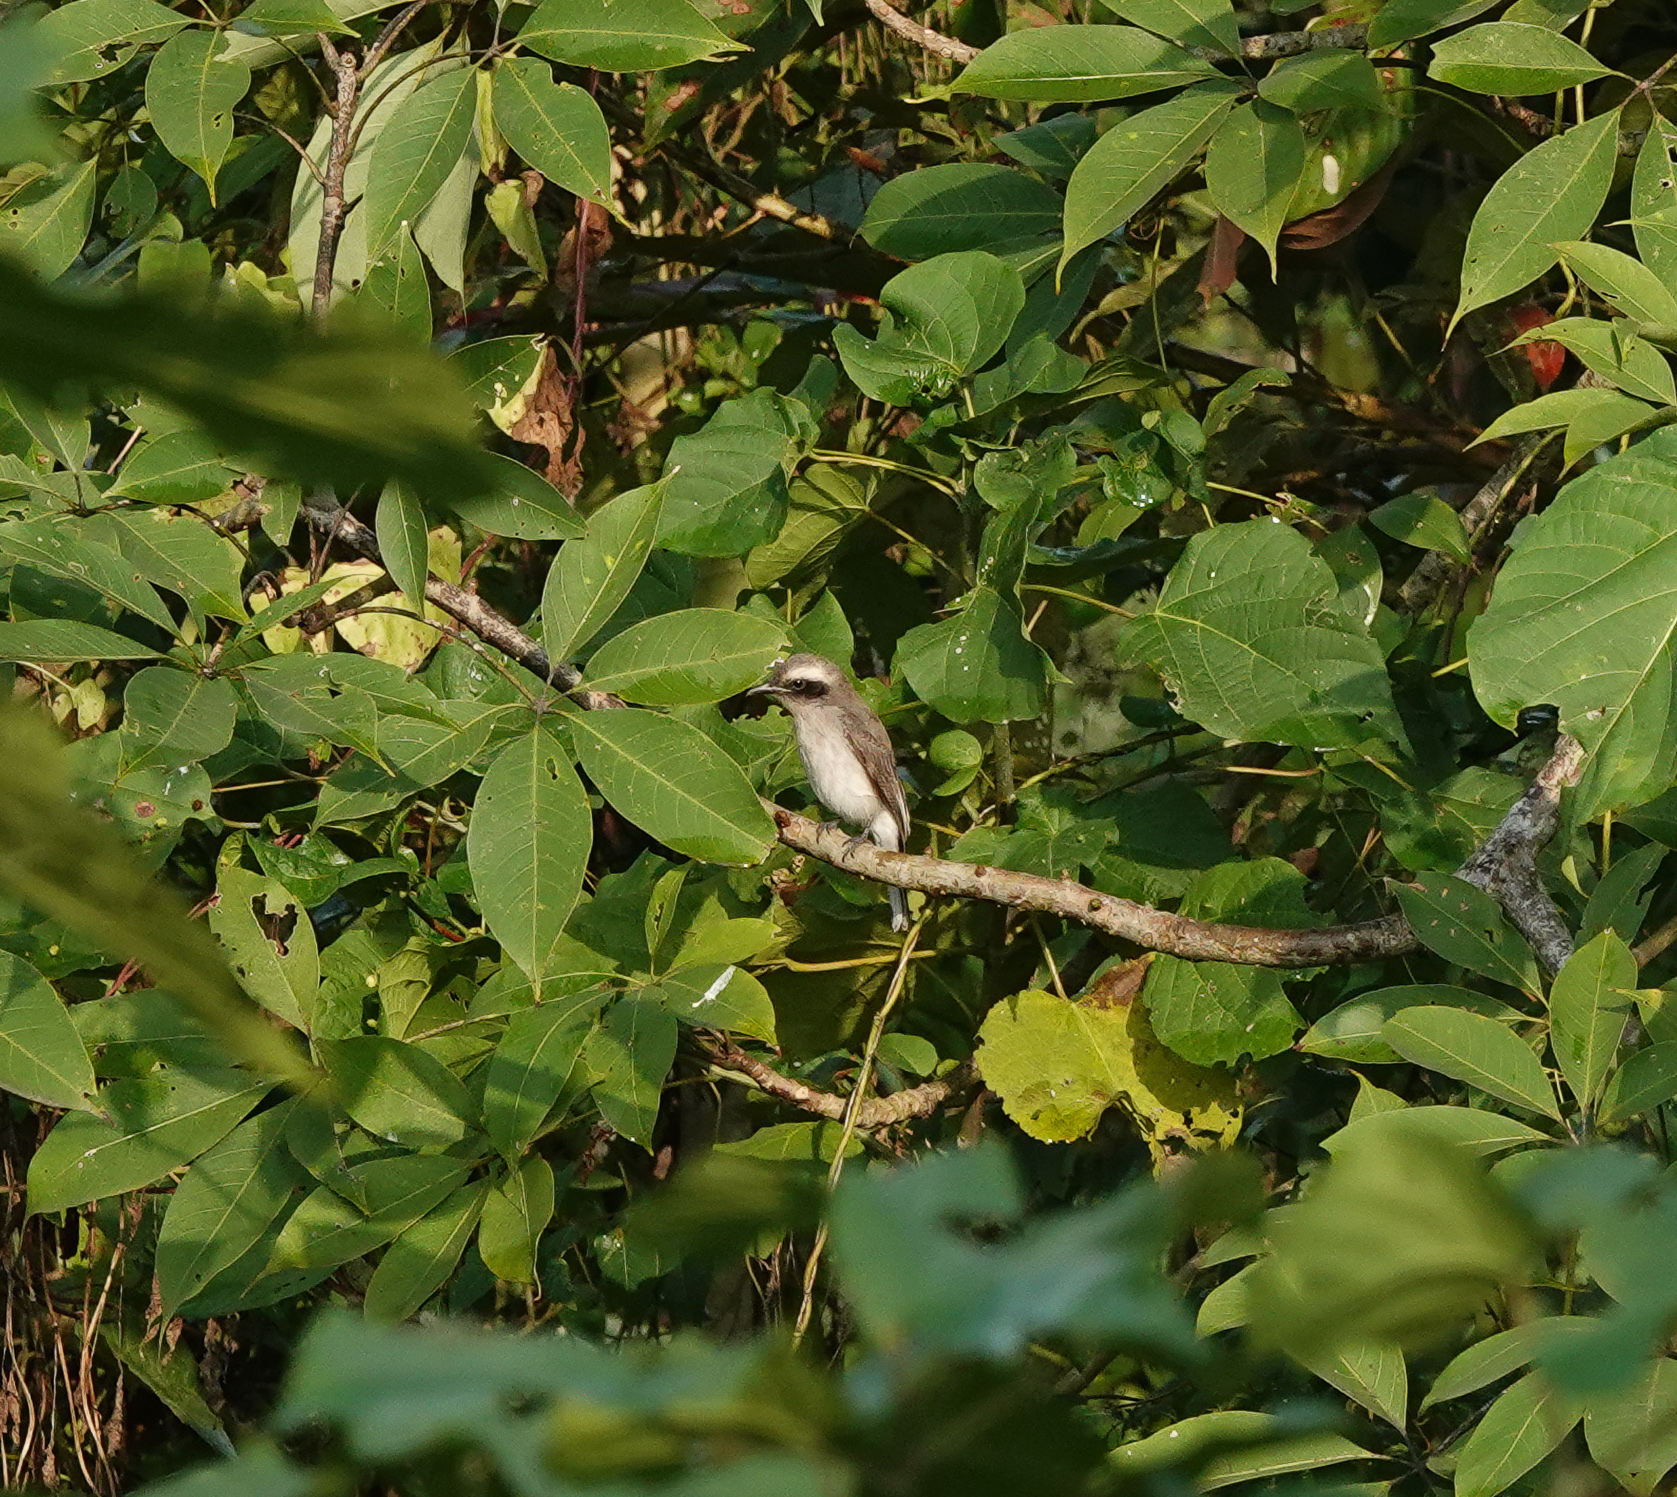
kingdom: Animalia
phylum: Chordata
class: Aves
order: Passeriformes
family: Muscicapidae
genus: Saxicola
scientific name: Saxicola ferreus
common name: Grey bush chat
